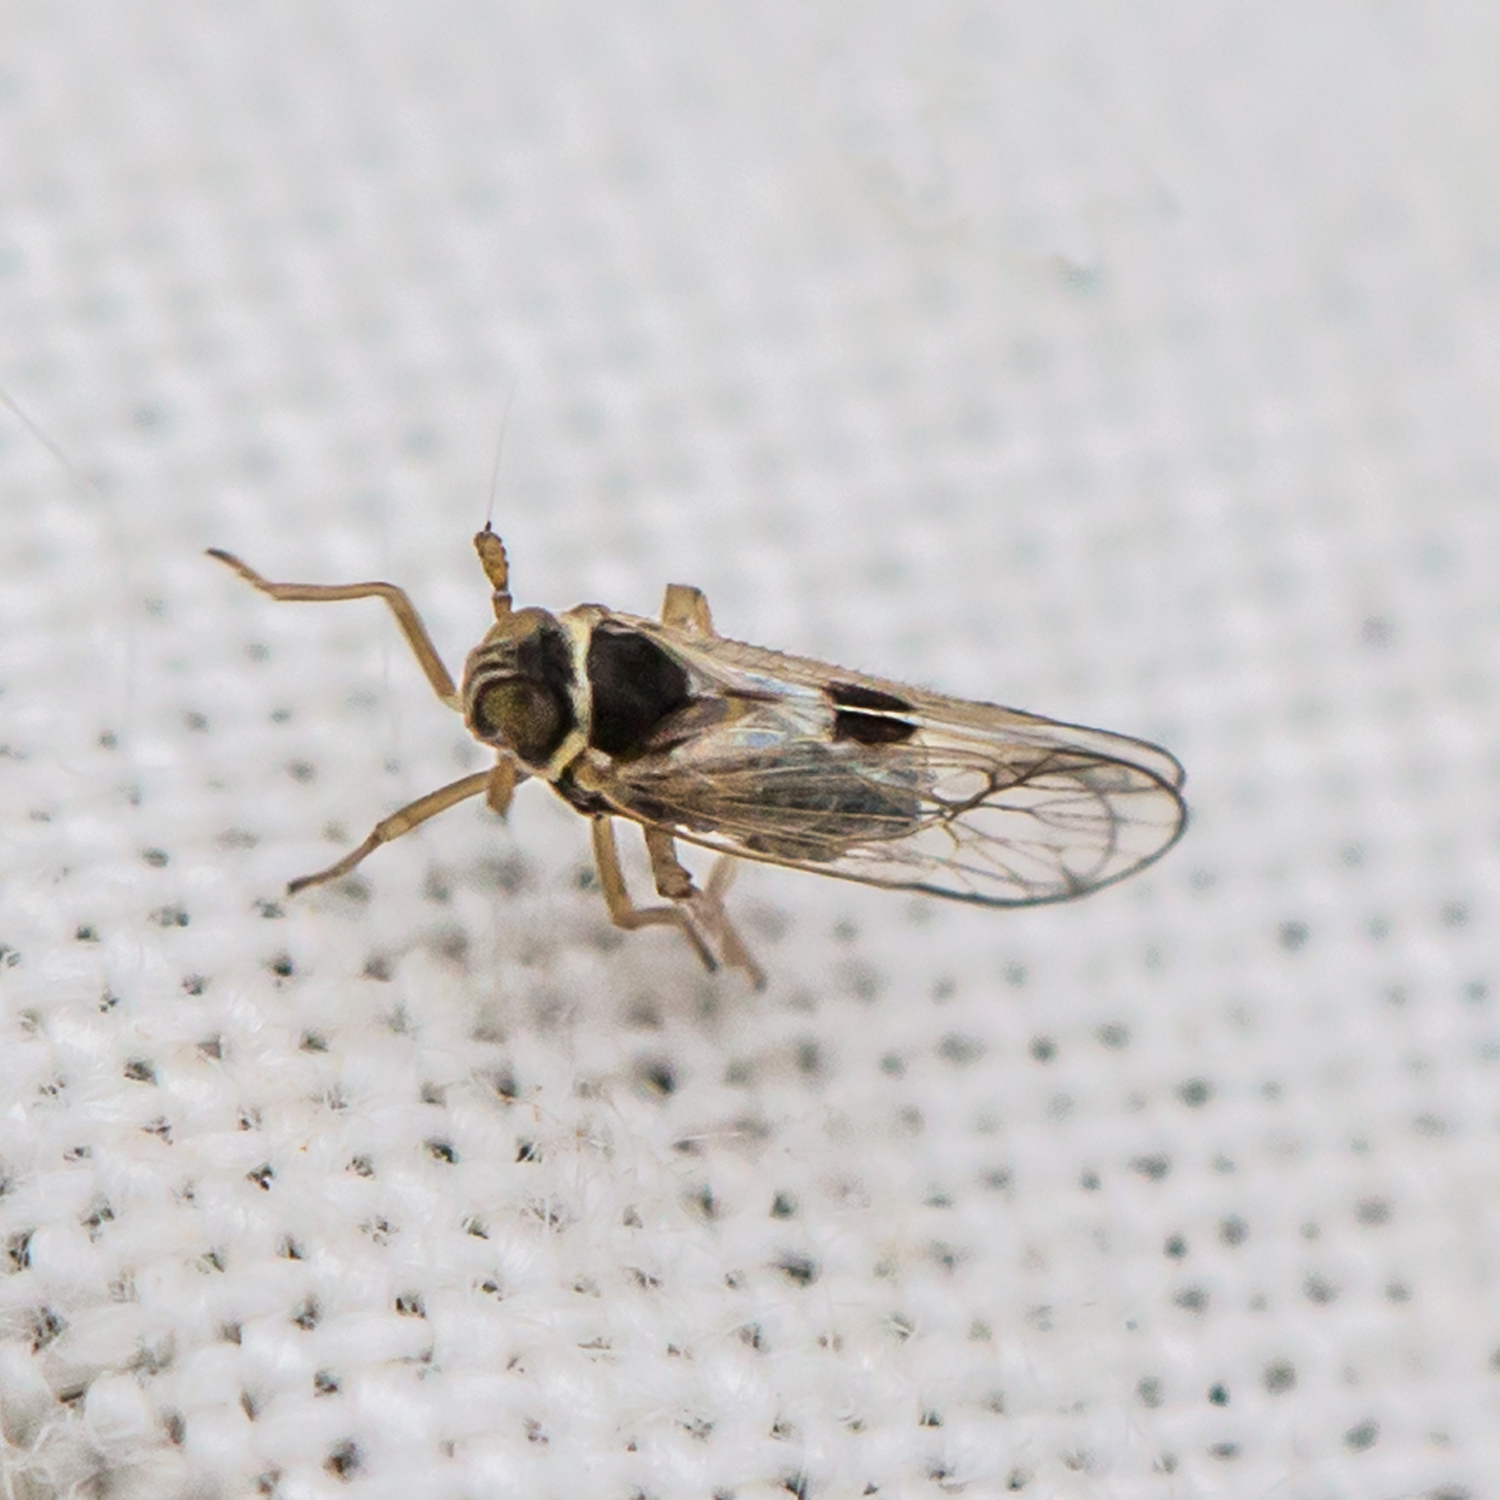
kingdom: Animalia
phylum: Arthropoda
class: Insecta
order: Hemiptera
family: Delphacidae
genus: Chionomus
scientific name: Chionomus
